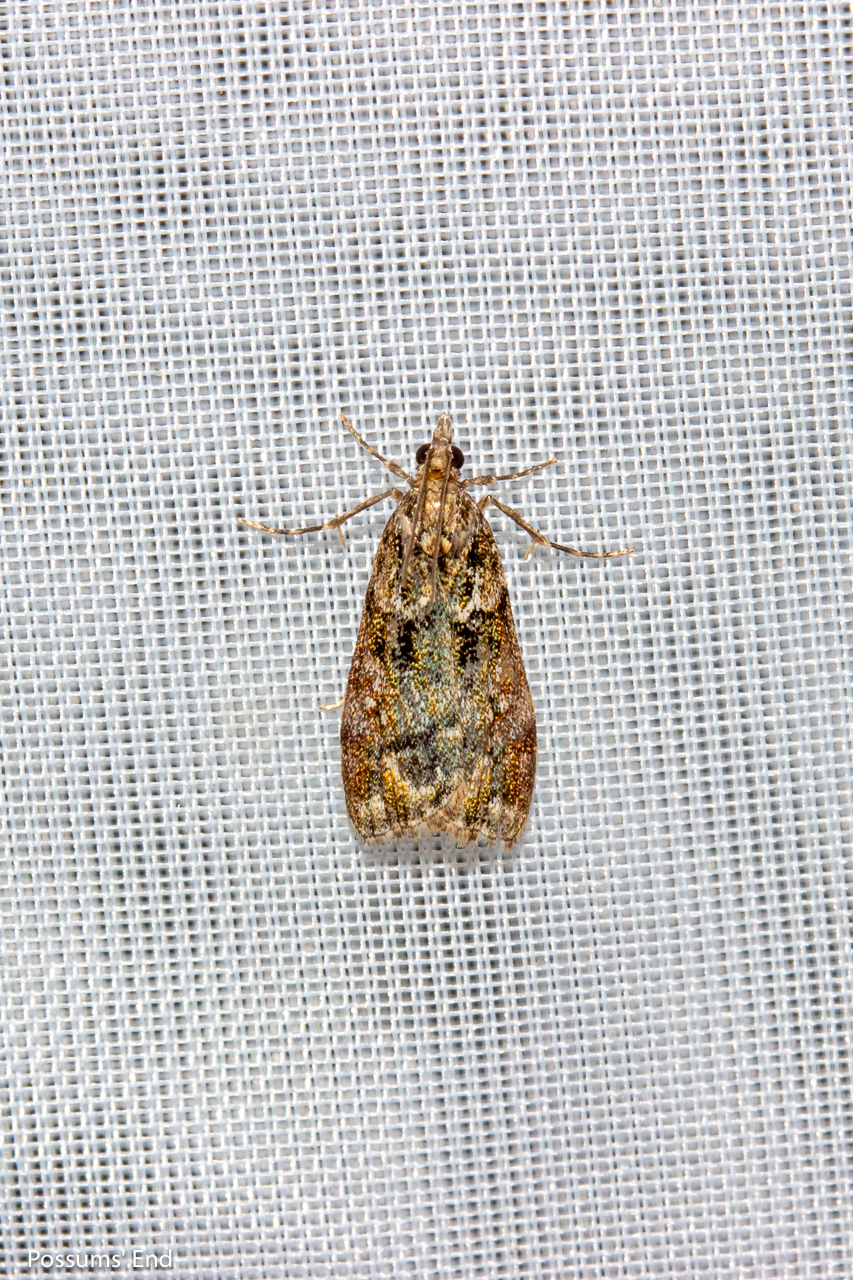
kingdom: Animalia
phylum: Arthropoda
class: Insecta
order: Lepidoptera
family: Crambidae
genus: Eudonia
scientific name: Eudonia minualis
